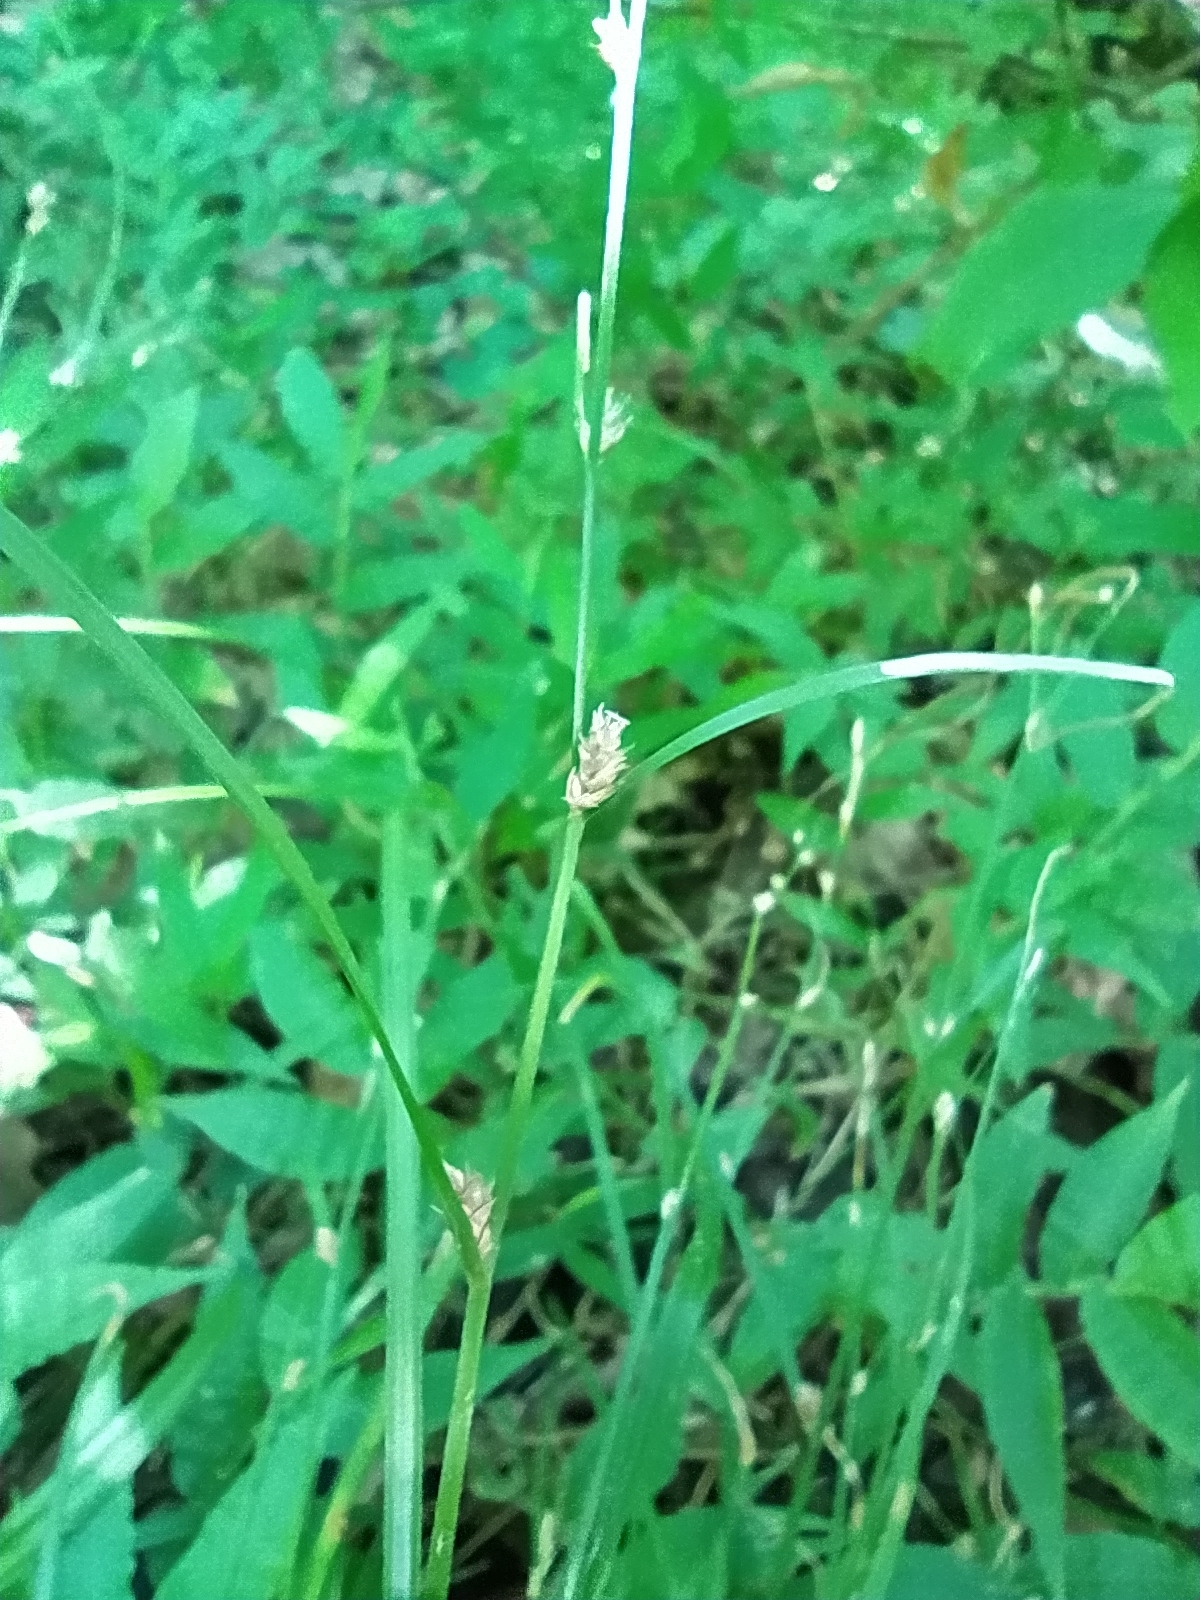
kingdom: Plantae
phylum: Tracheophyta
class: Liliopsida
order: Poales
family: Cyperaceae
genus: Carex
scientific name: Carex remota
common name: Remote sedge
